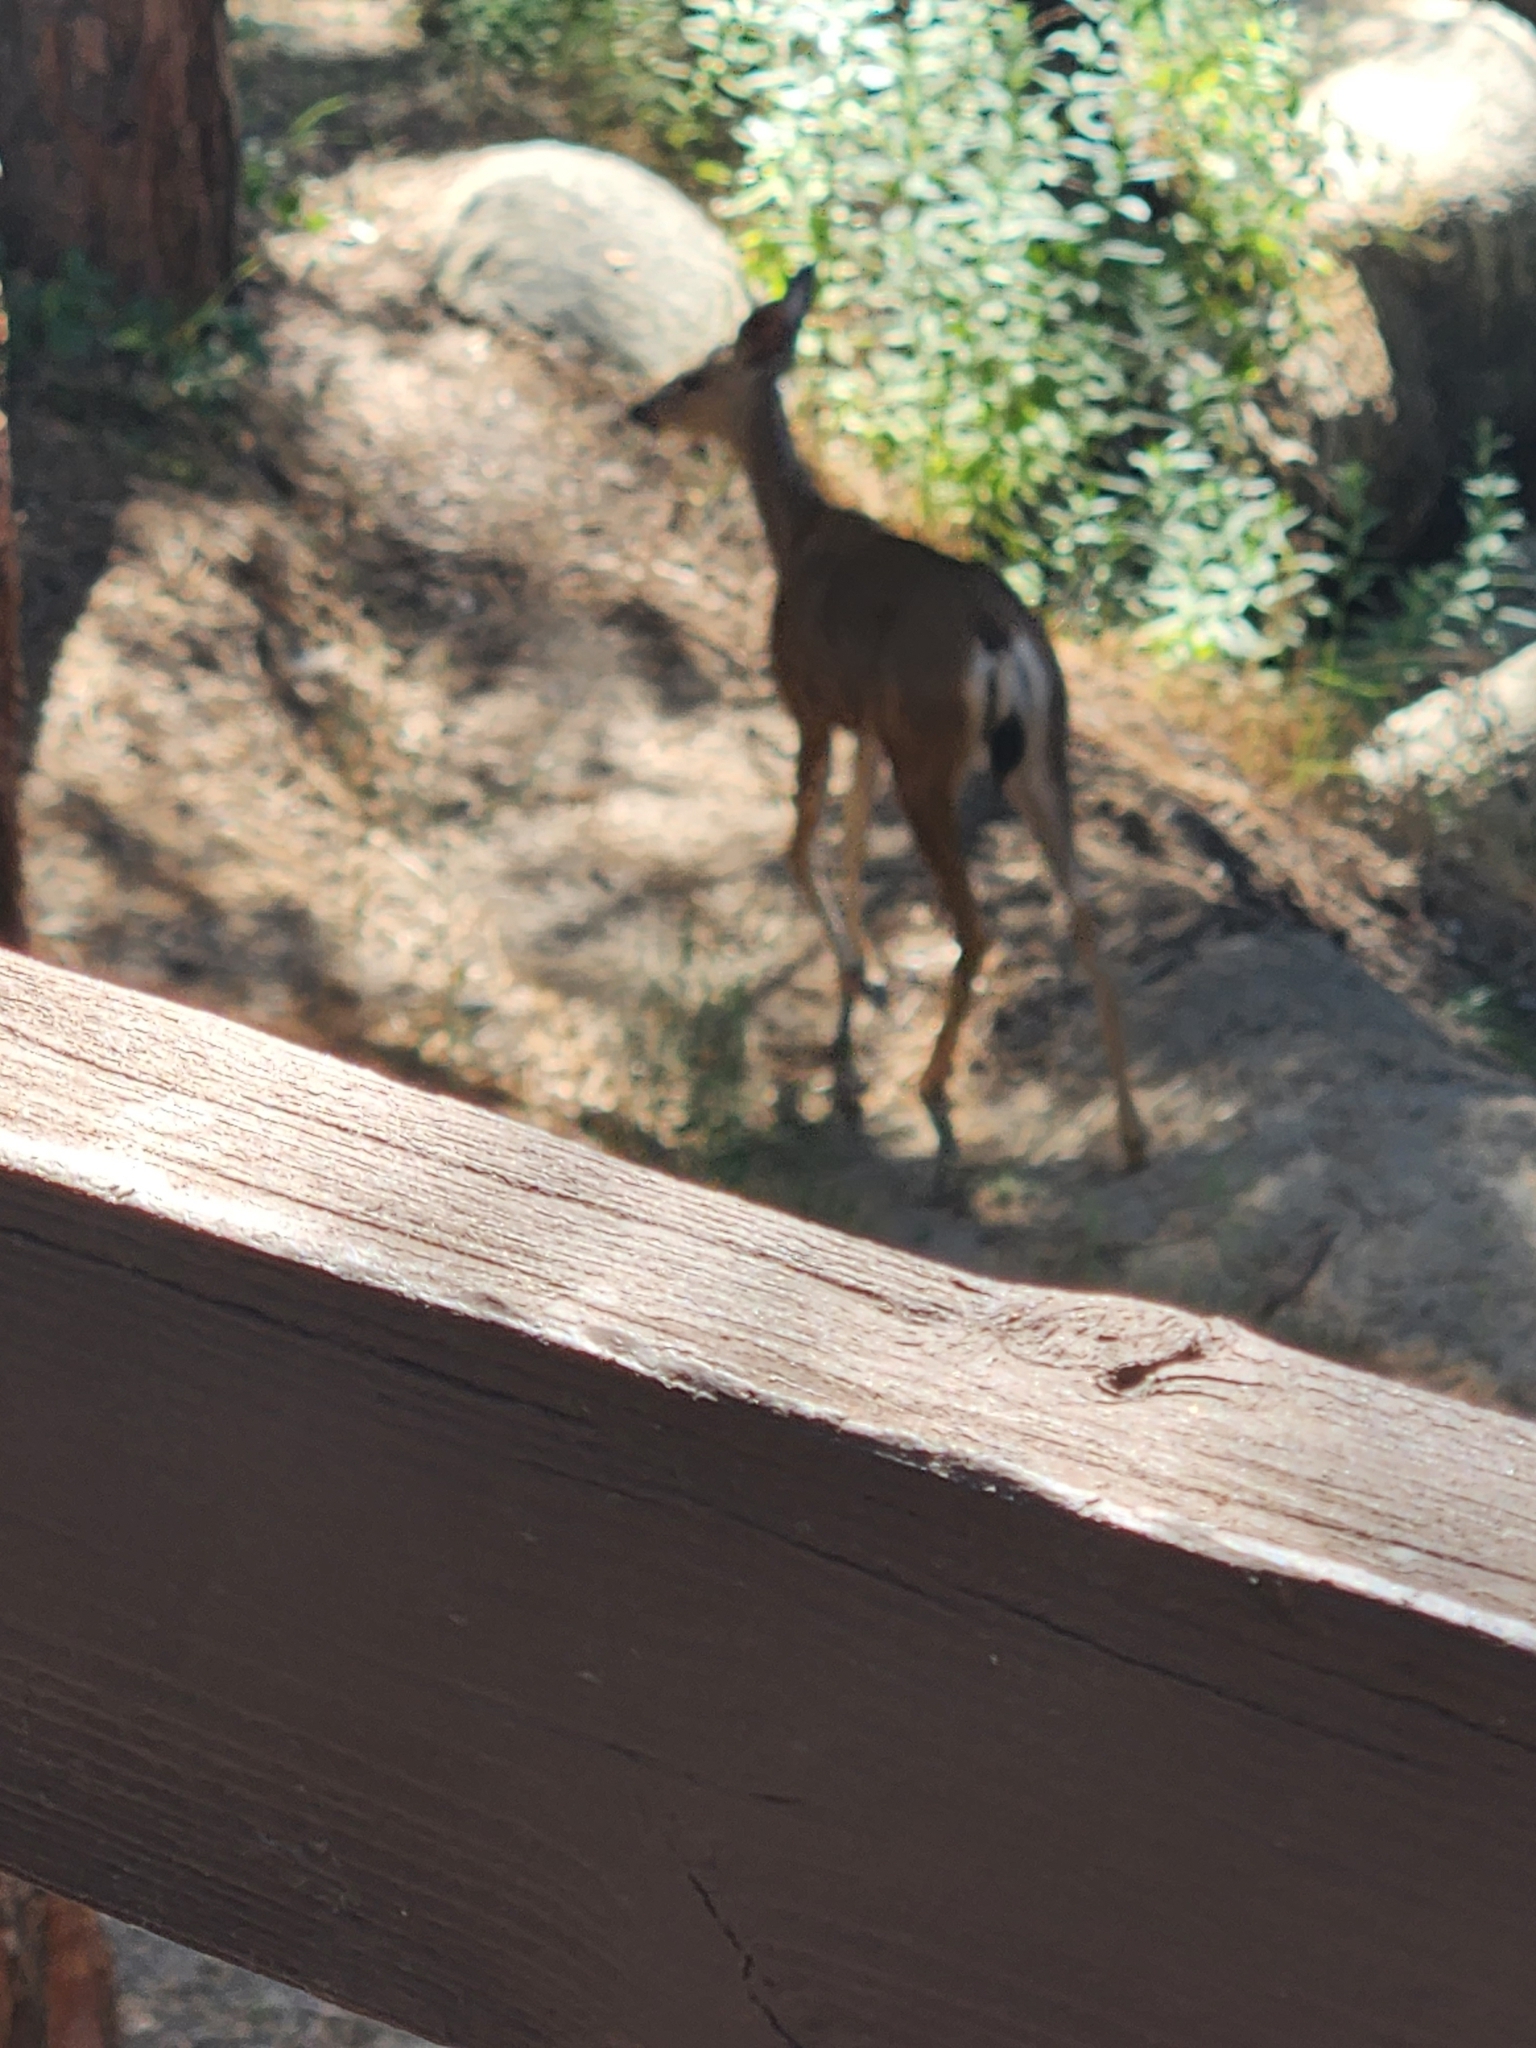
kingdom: Animalia
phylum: Chordata
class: Mammalia
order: Artiodactyla
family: Cervidae
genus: Odocoileus
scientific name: Odocoileus hemionus
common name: Mule deer
